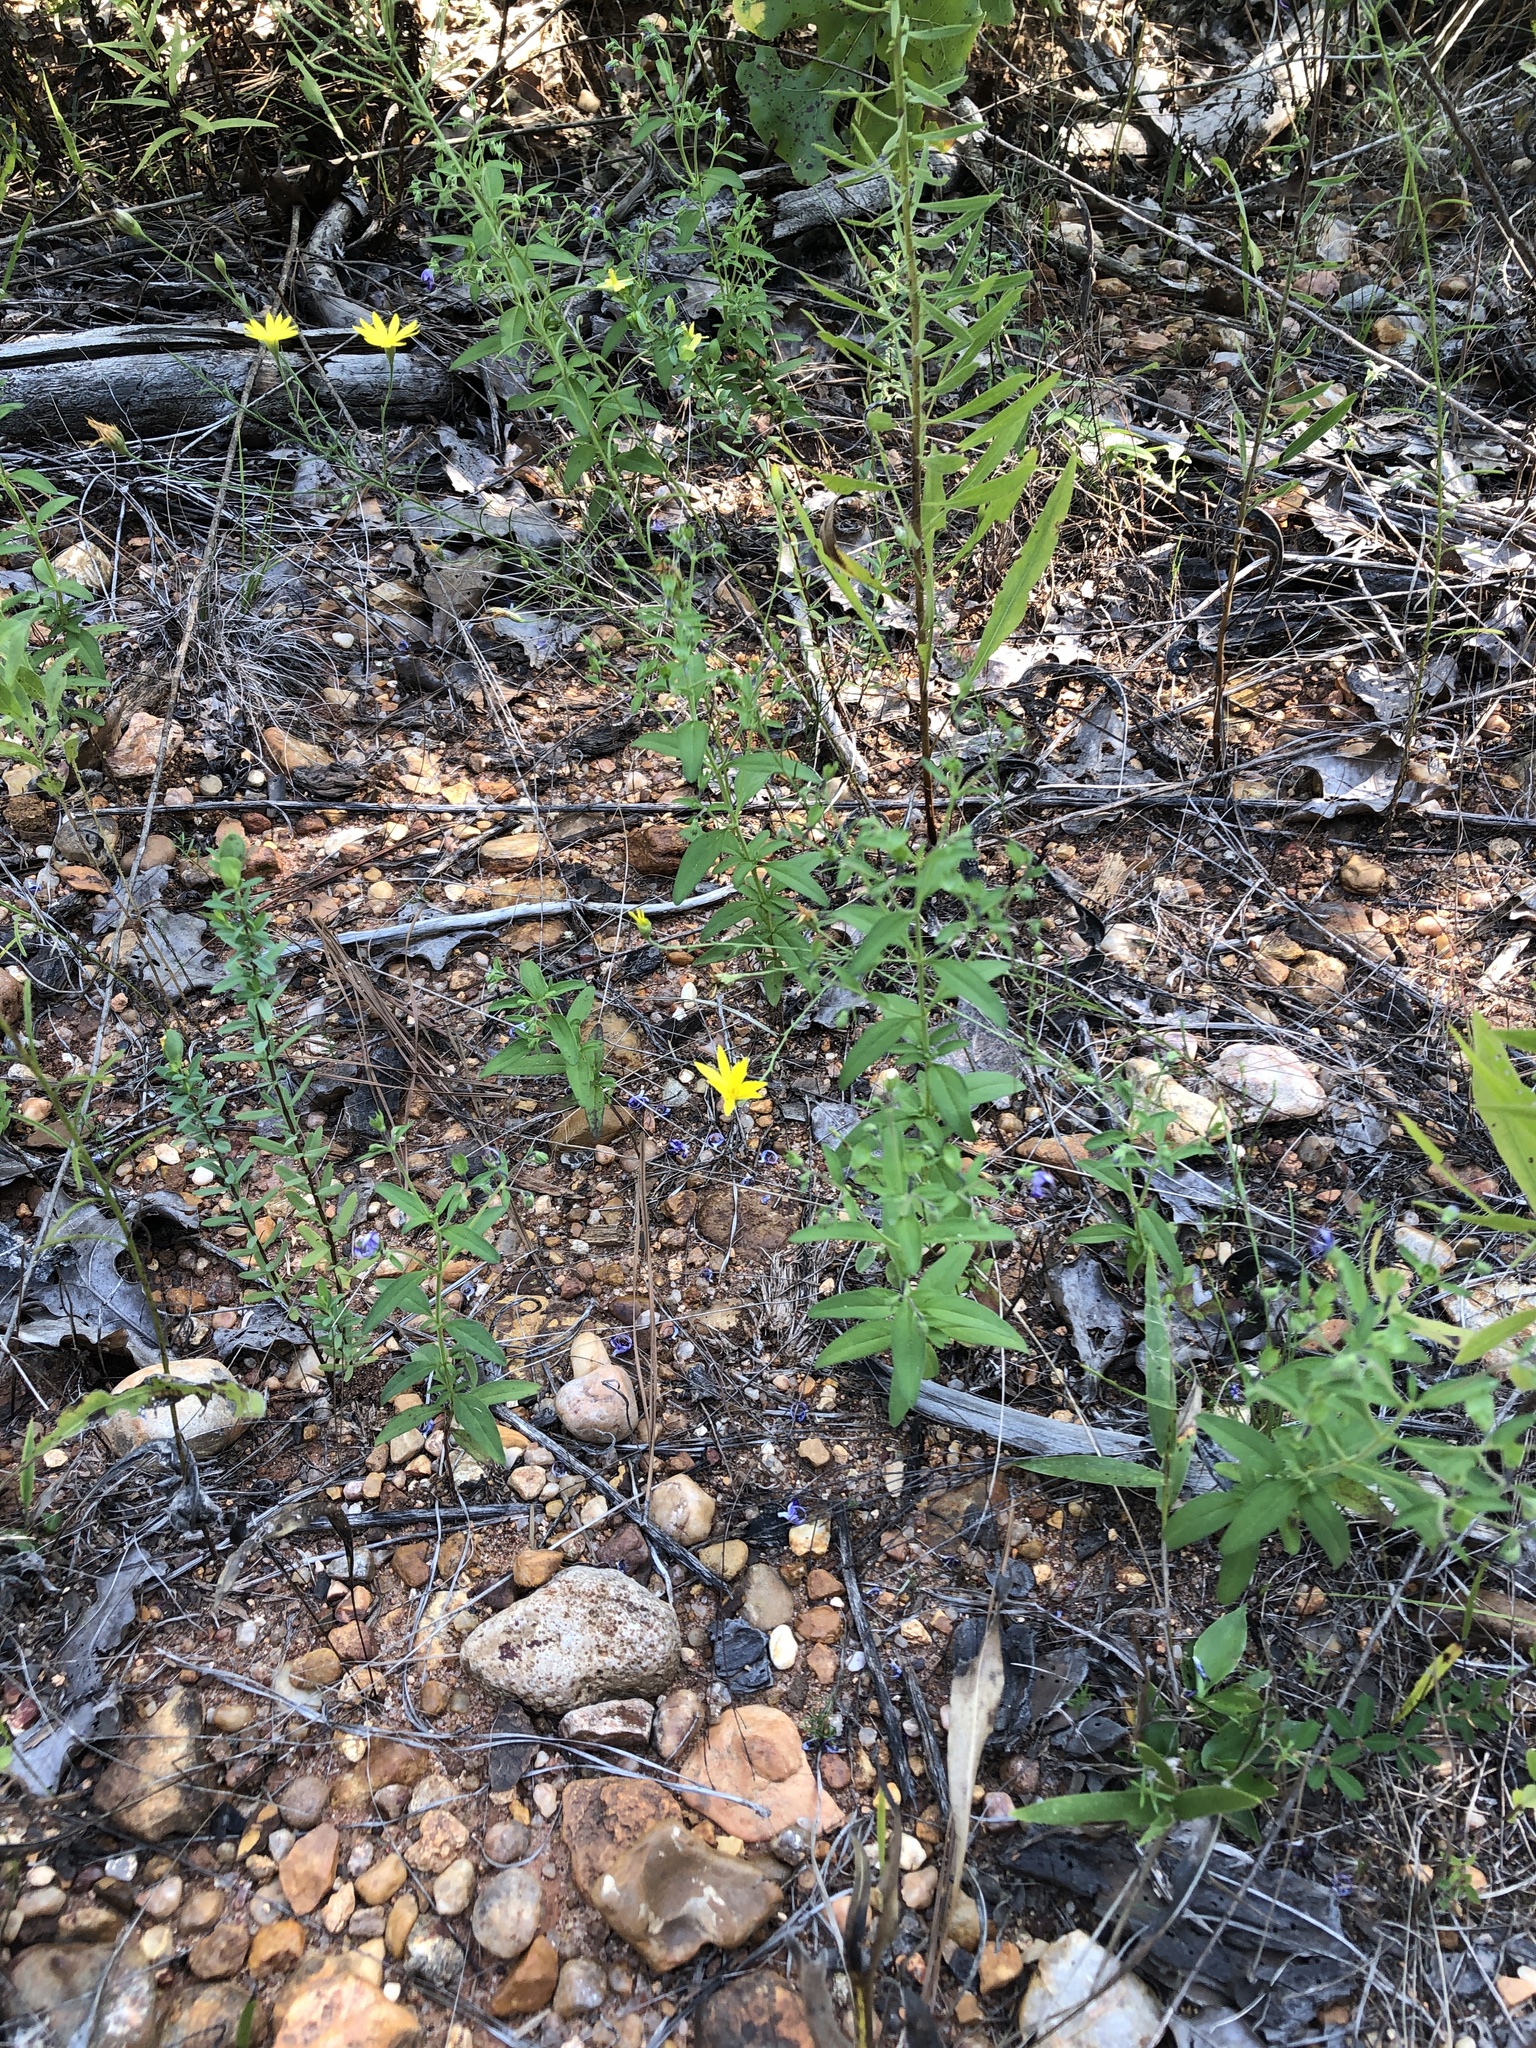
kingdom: Plantae
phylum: Tracheophyta
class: Magnoliopsida
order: Lamiales
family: Lamiaceae
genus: Trichostema
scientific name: Trichostema dichotomum
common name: Bastard pennyroyal
